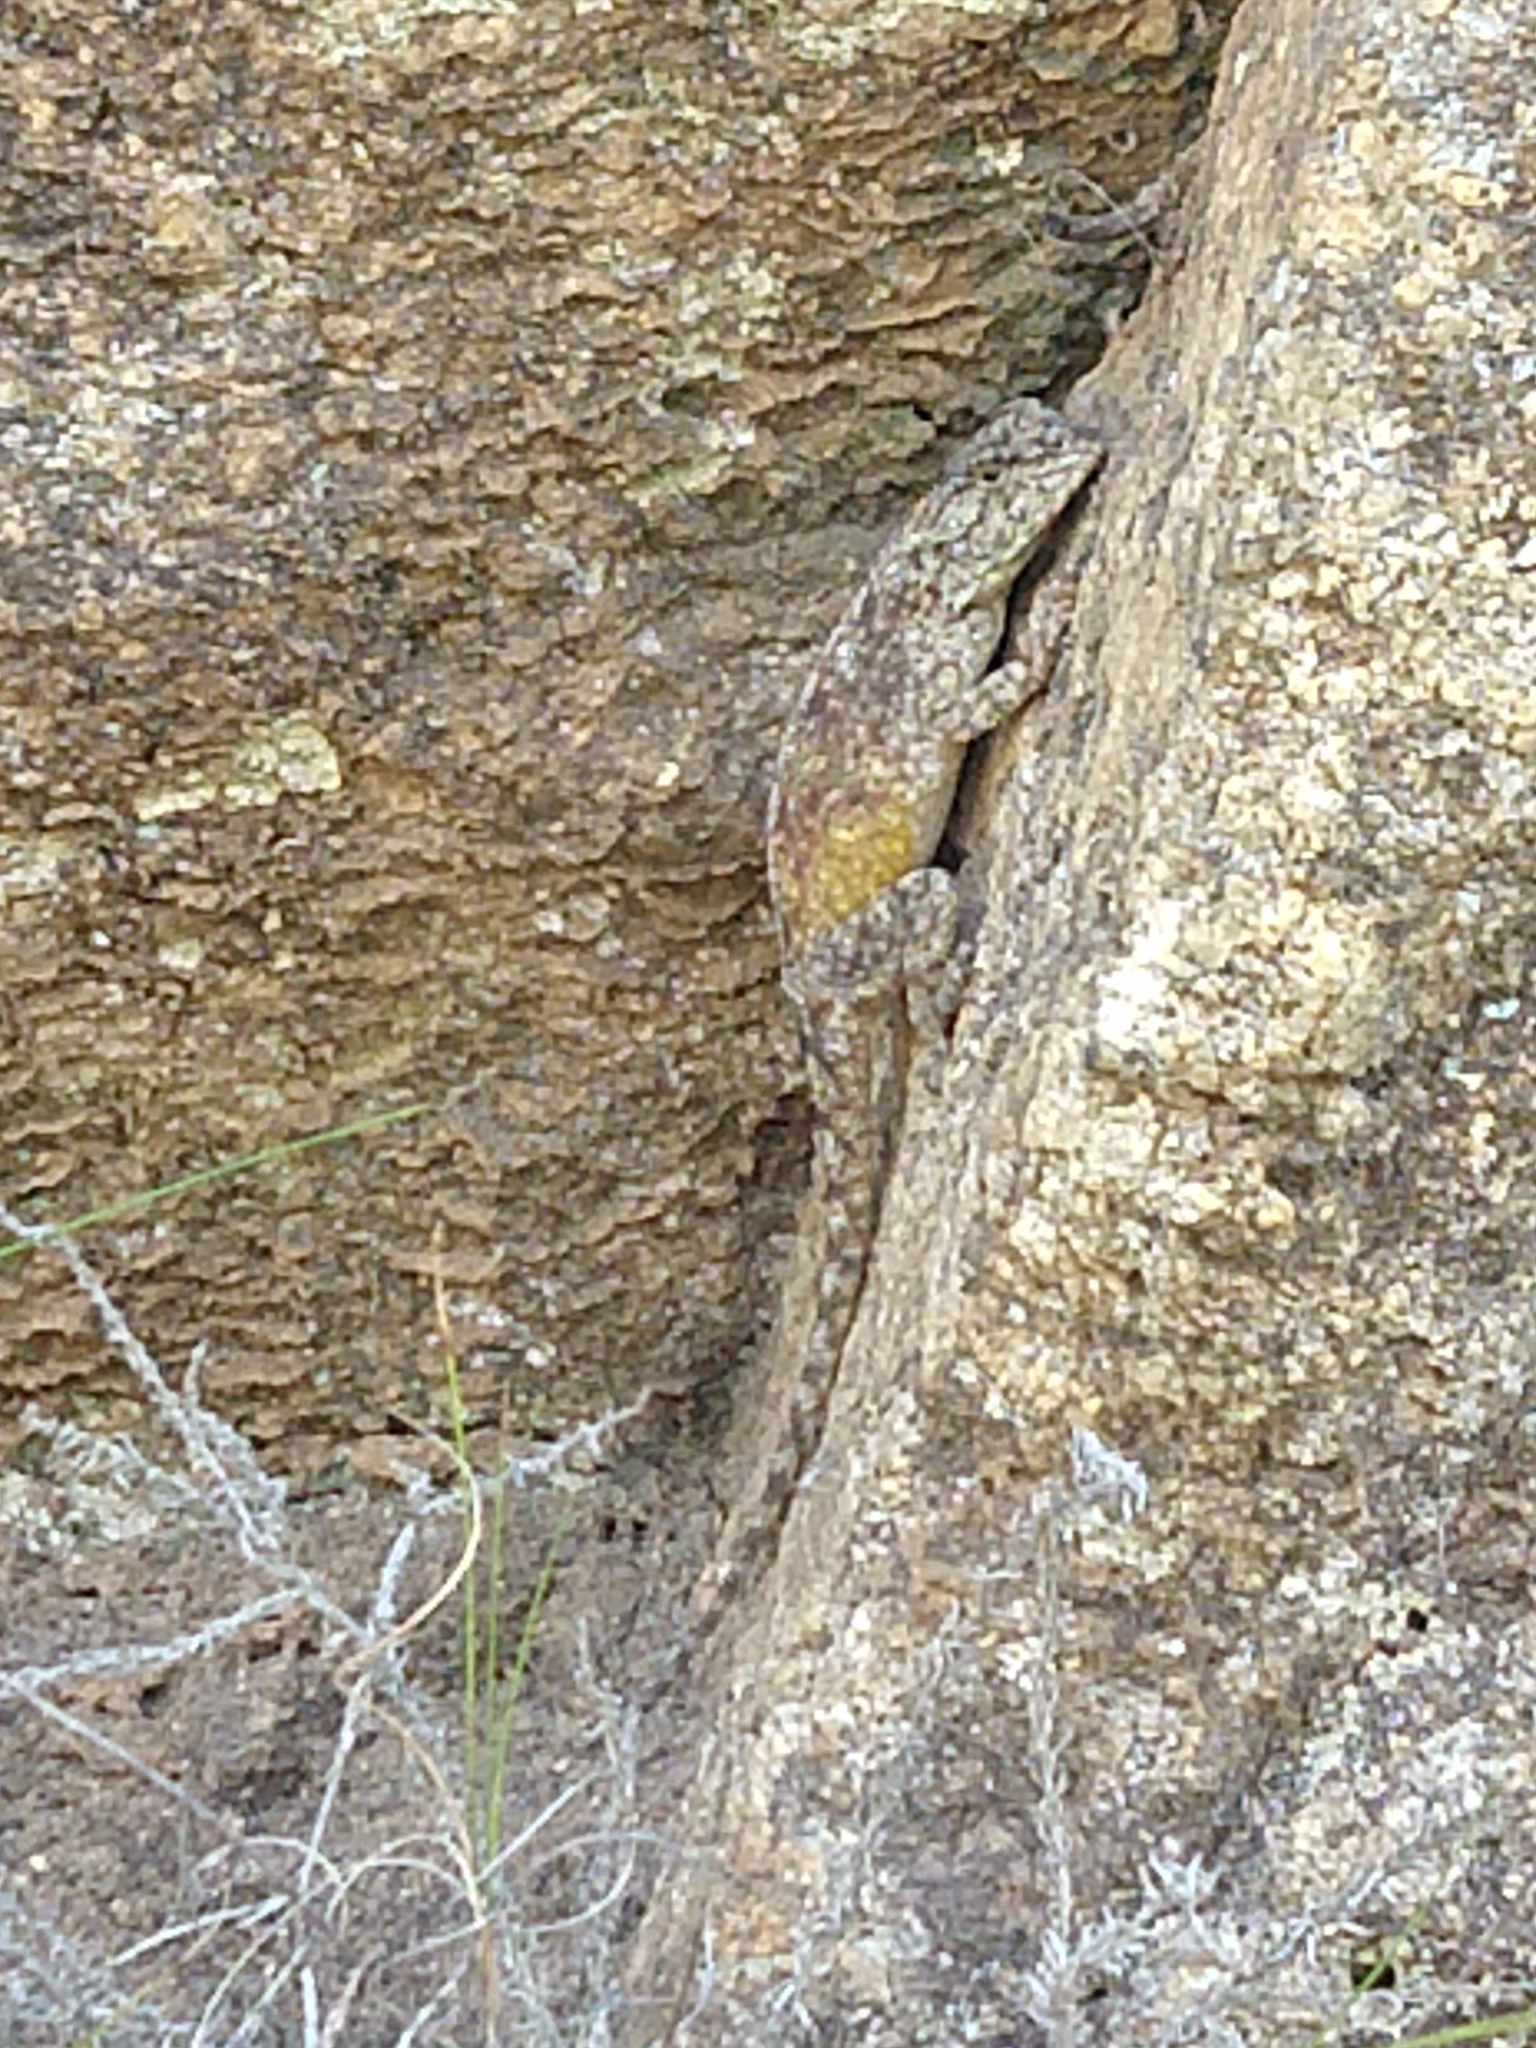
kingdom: Animalia
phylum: Chordata
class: Squamata
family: Agamidae
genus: Agama
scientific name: Agama atra
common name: Southern african rock agama
